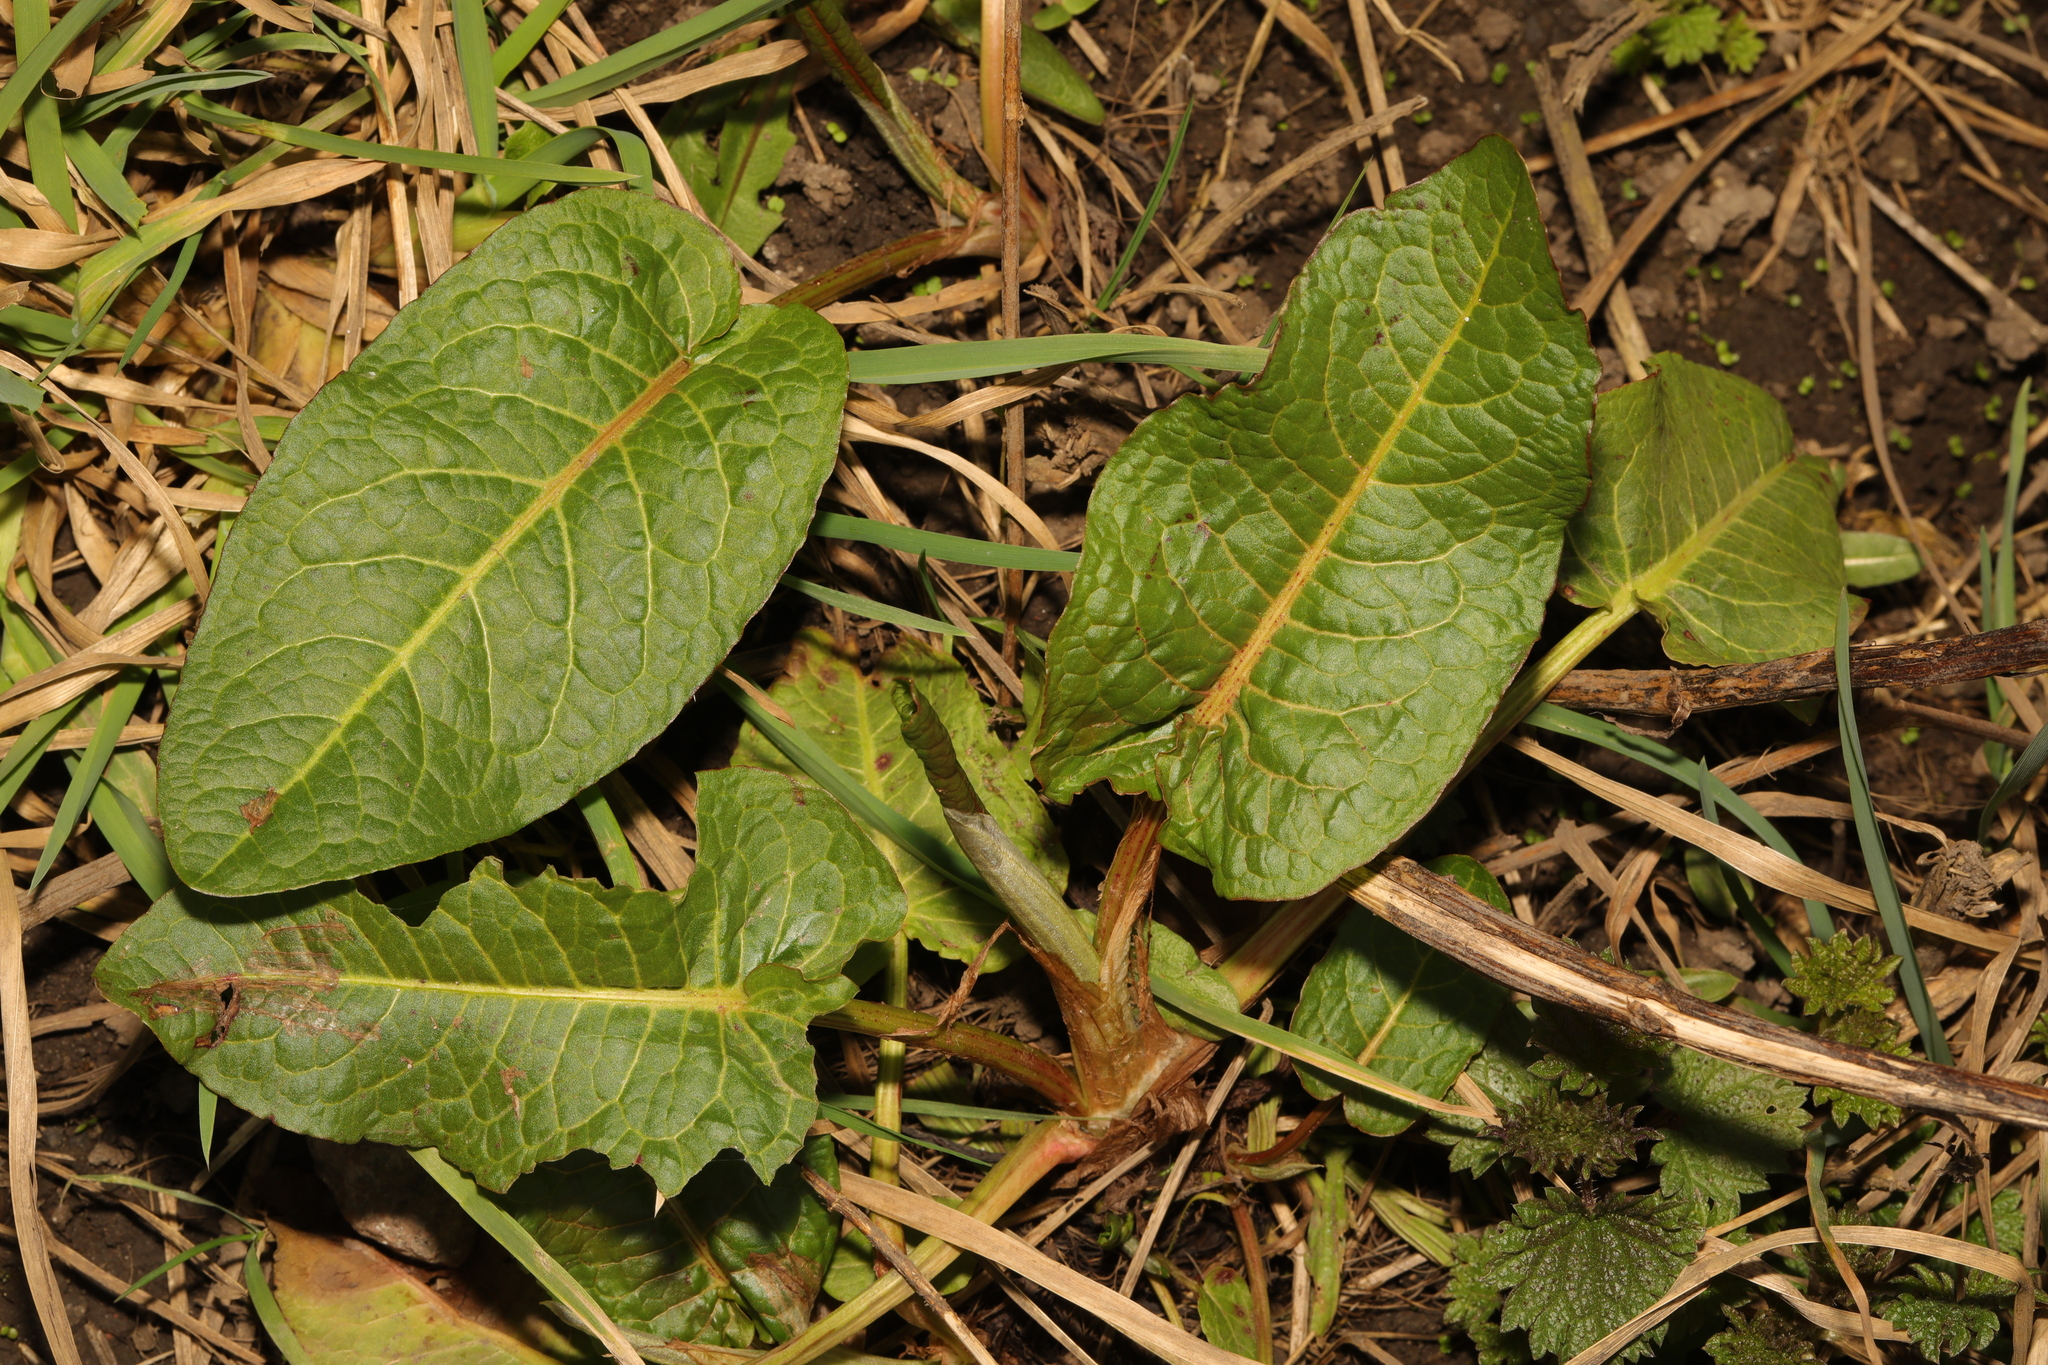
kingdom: Plantae
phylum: Tracheophyta
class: Magnoliopsida
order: Caryophyllales
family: Polygonaceae
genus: Rumex
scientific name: Rumex obtusifolius
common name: Bitter dock
